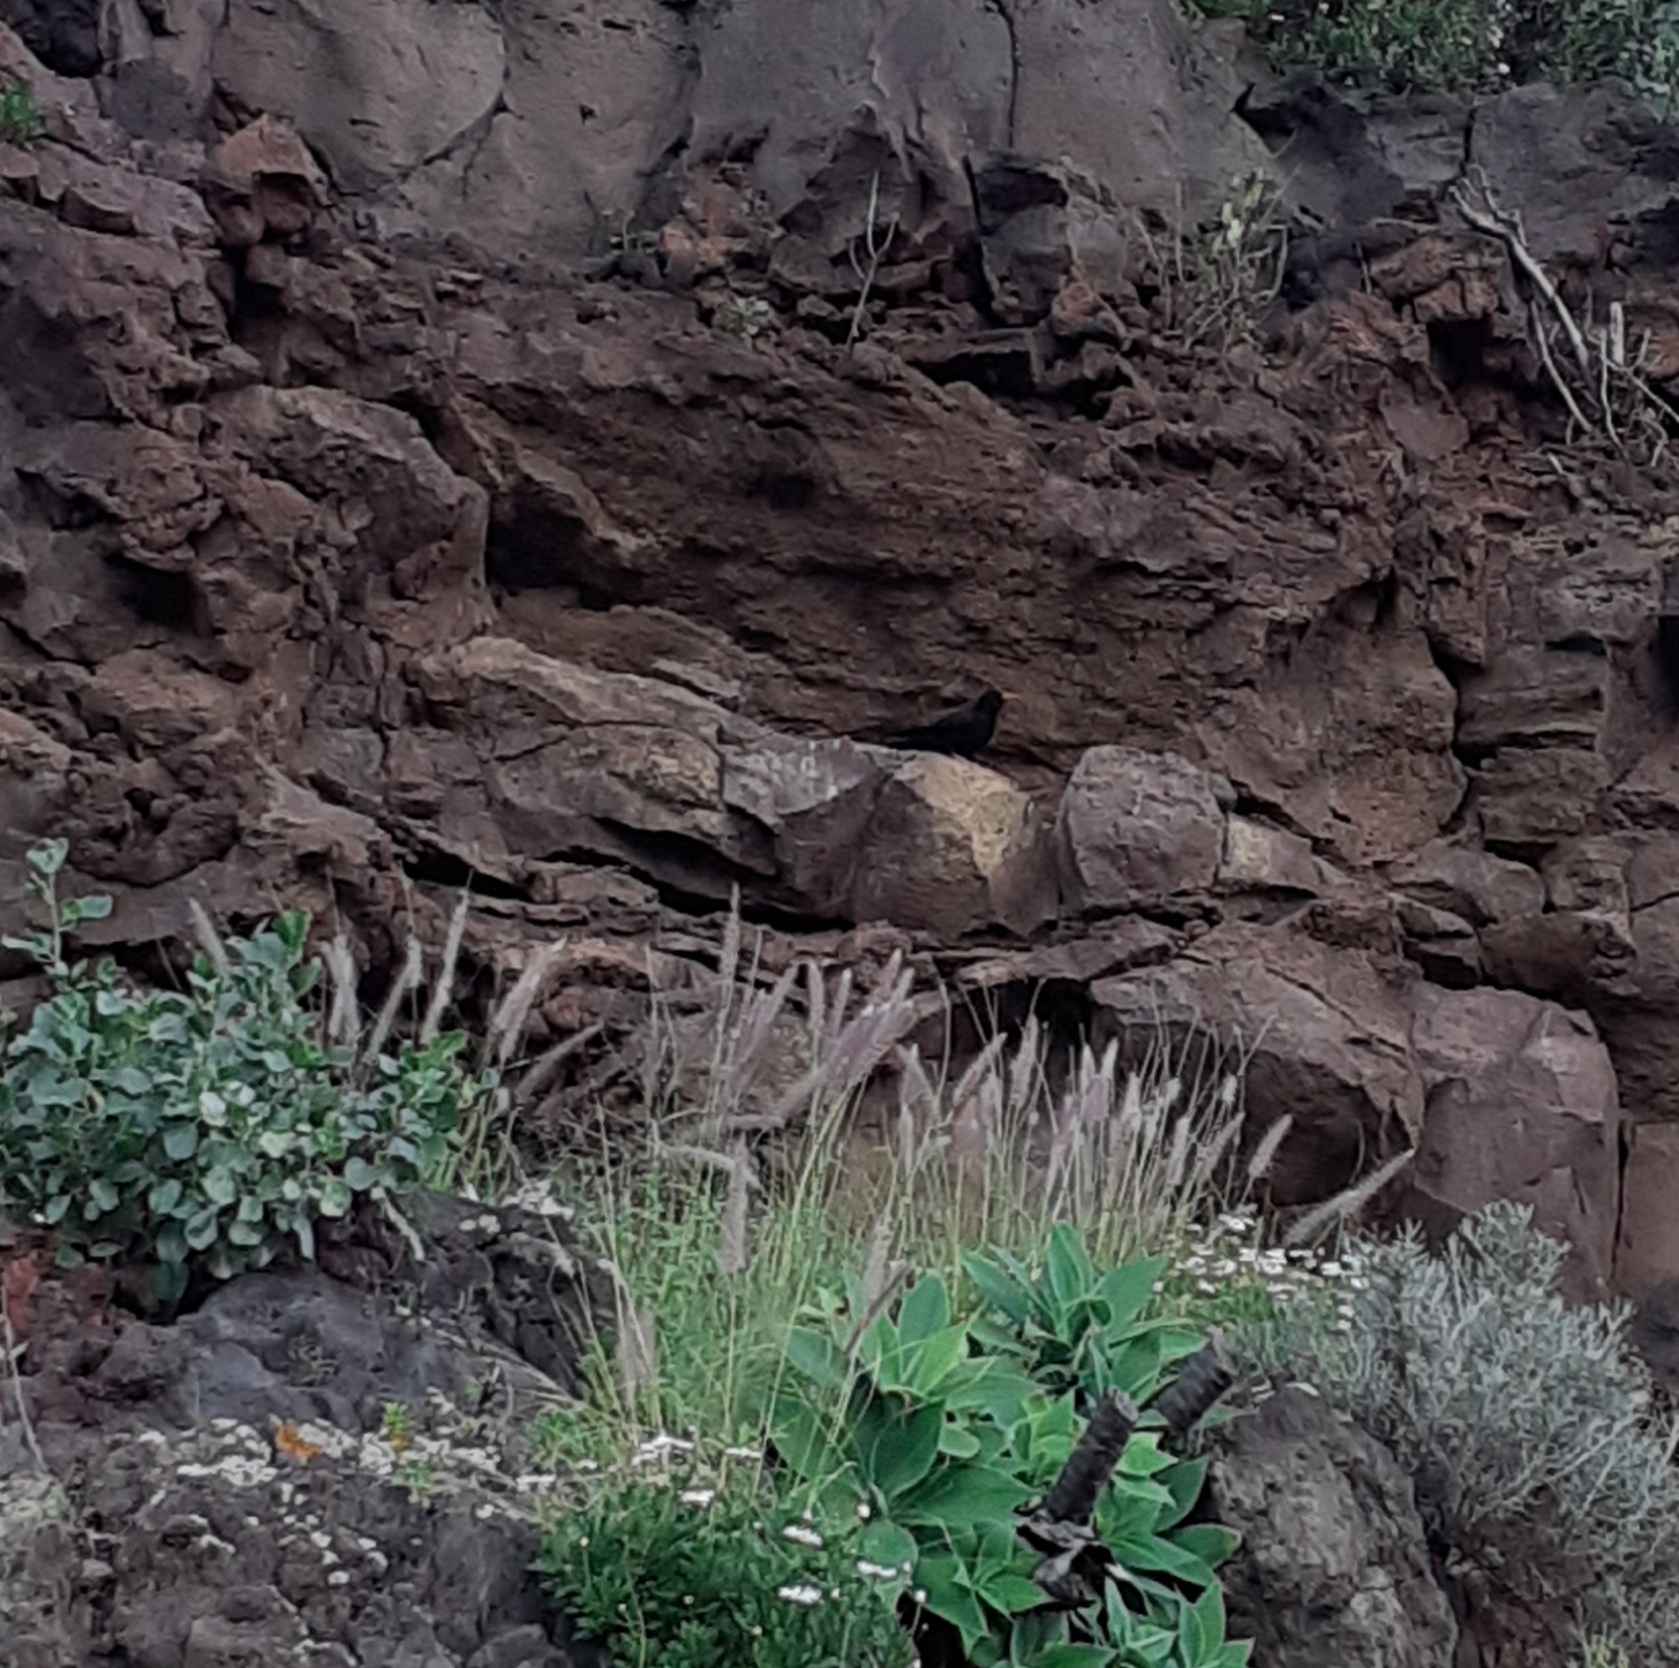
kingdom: Animalia
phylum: Chordata
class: Aves
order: Passeriformes
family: Corvidae
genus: Pyrrhocorax
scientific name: Pyrrhocorax pyrrhocorax
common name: Red-billed chough
